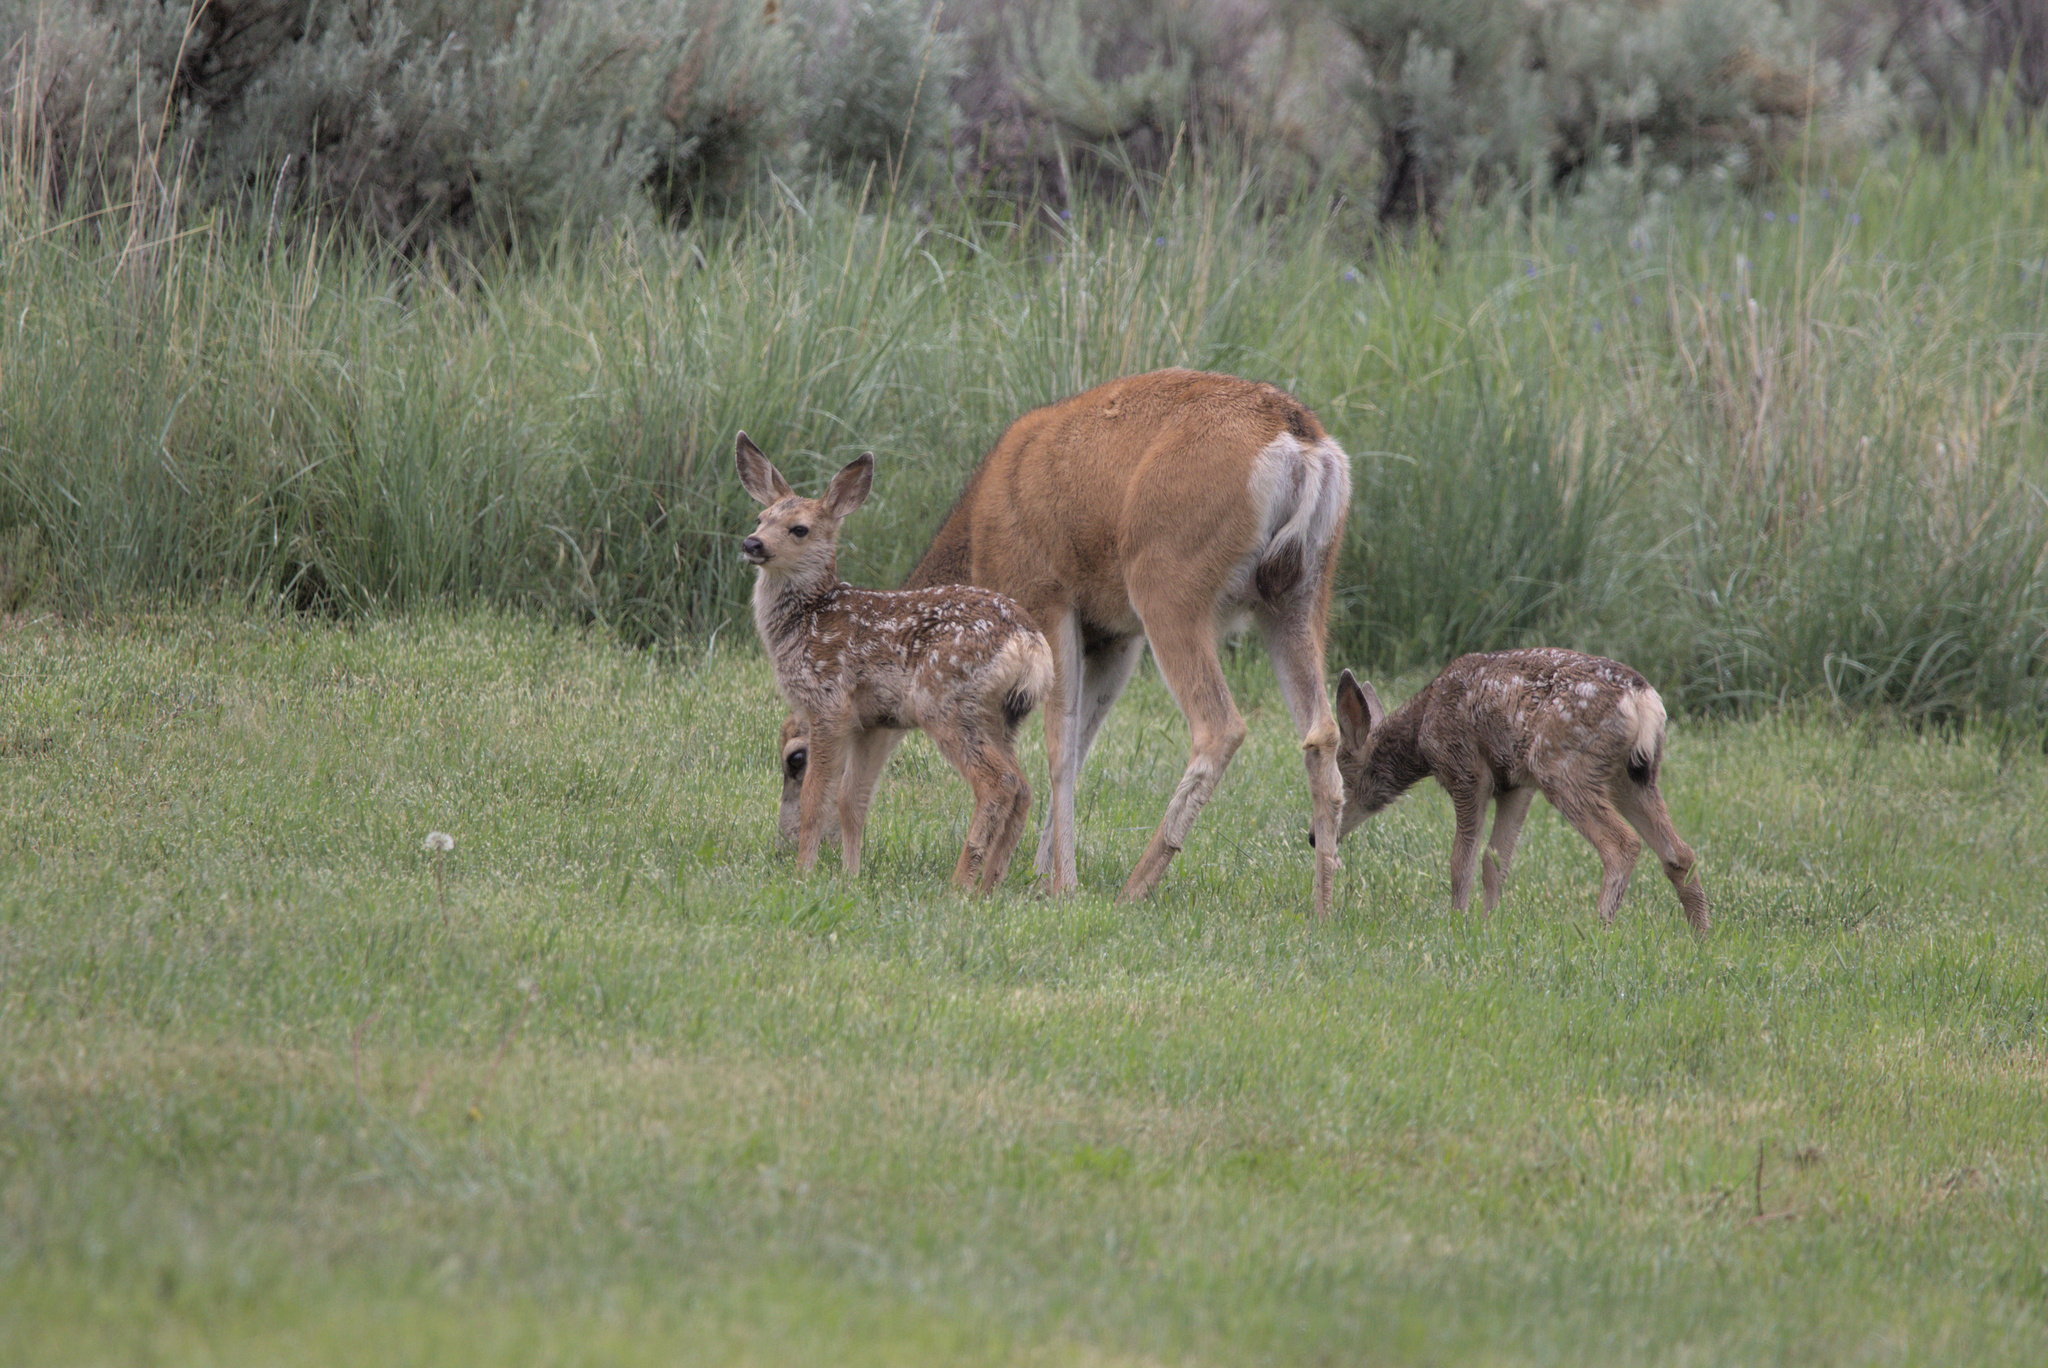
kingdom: Animalia
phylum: Chordata
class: Mammalia
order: Artiodactyla
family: Cervidae
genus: Odocoileus
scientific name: Odocoileus hemionus
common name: Mule deer
